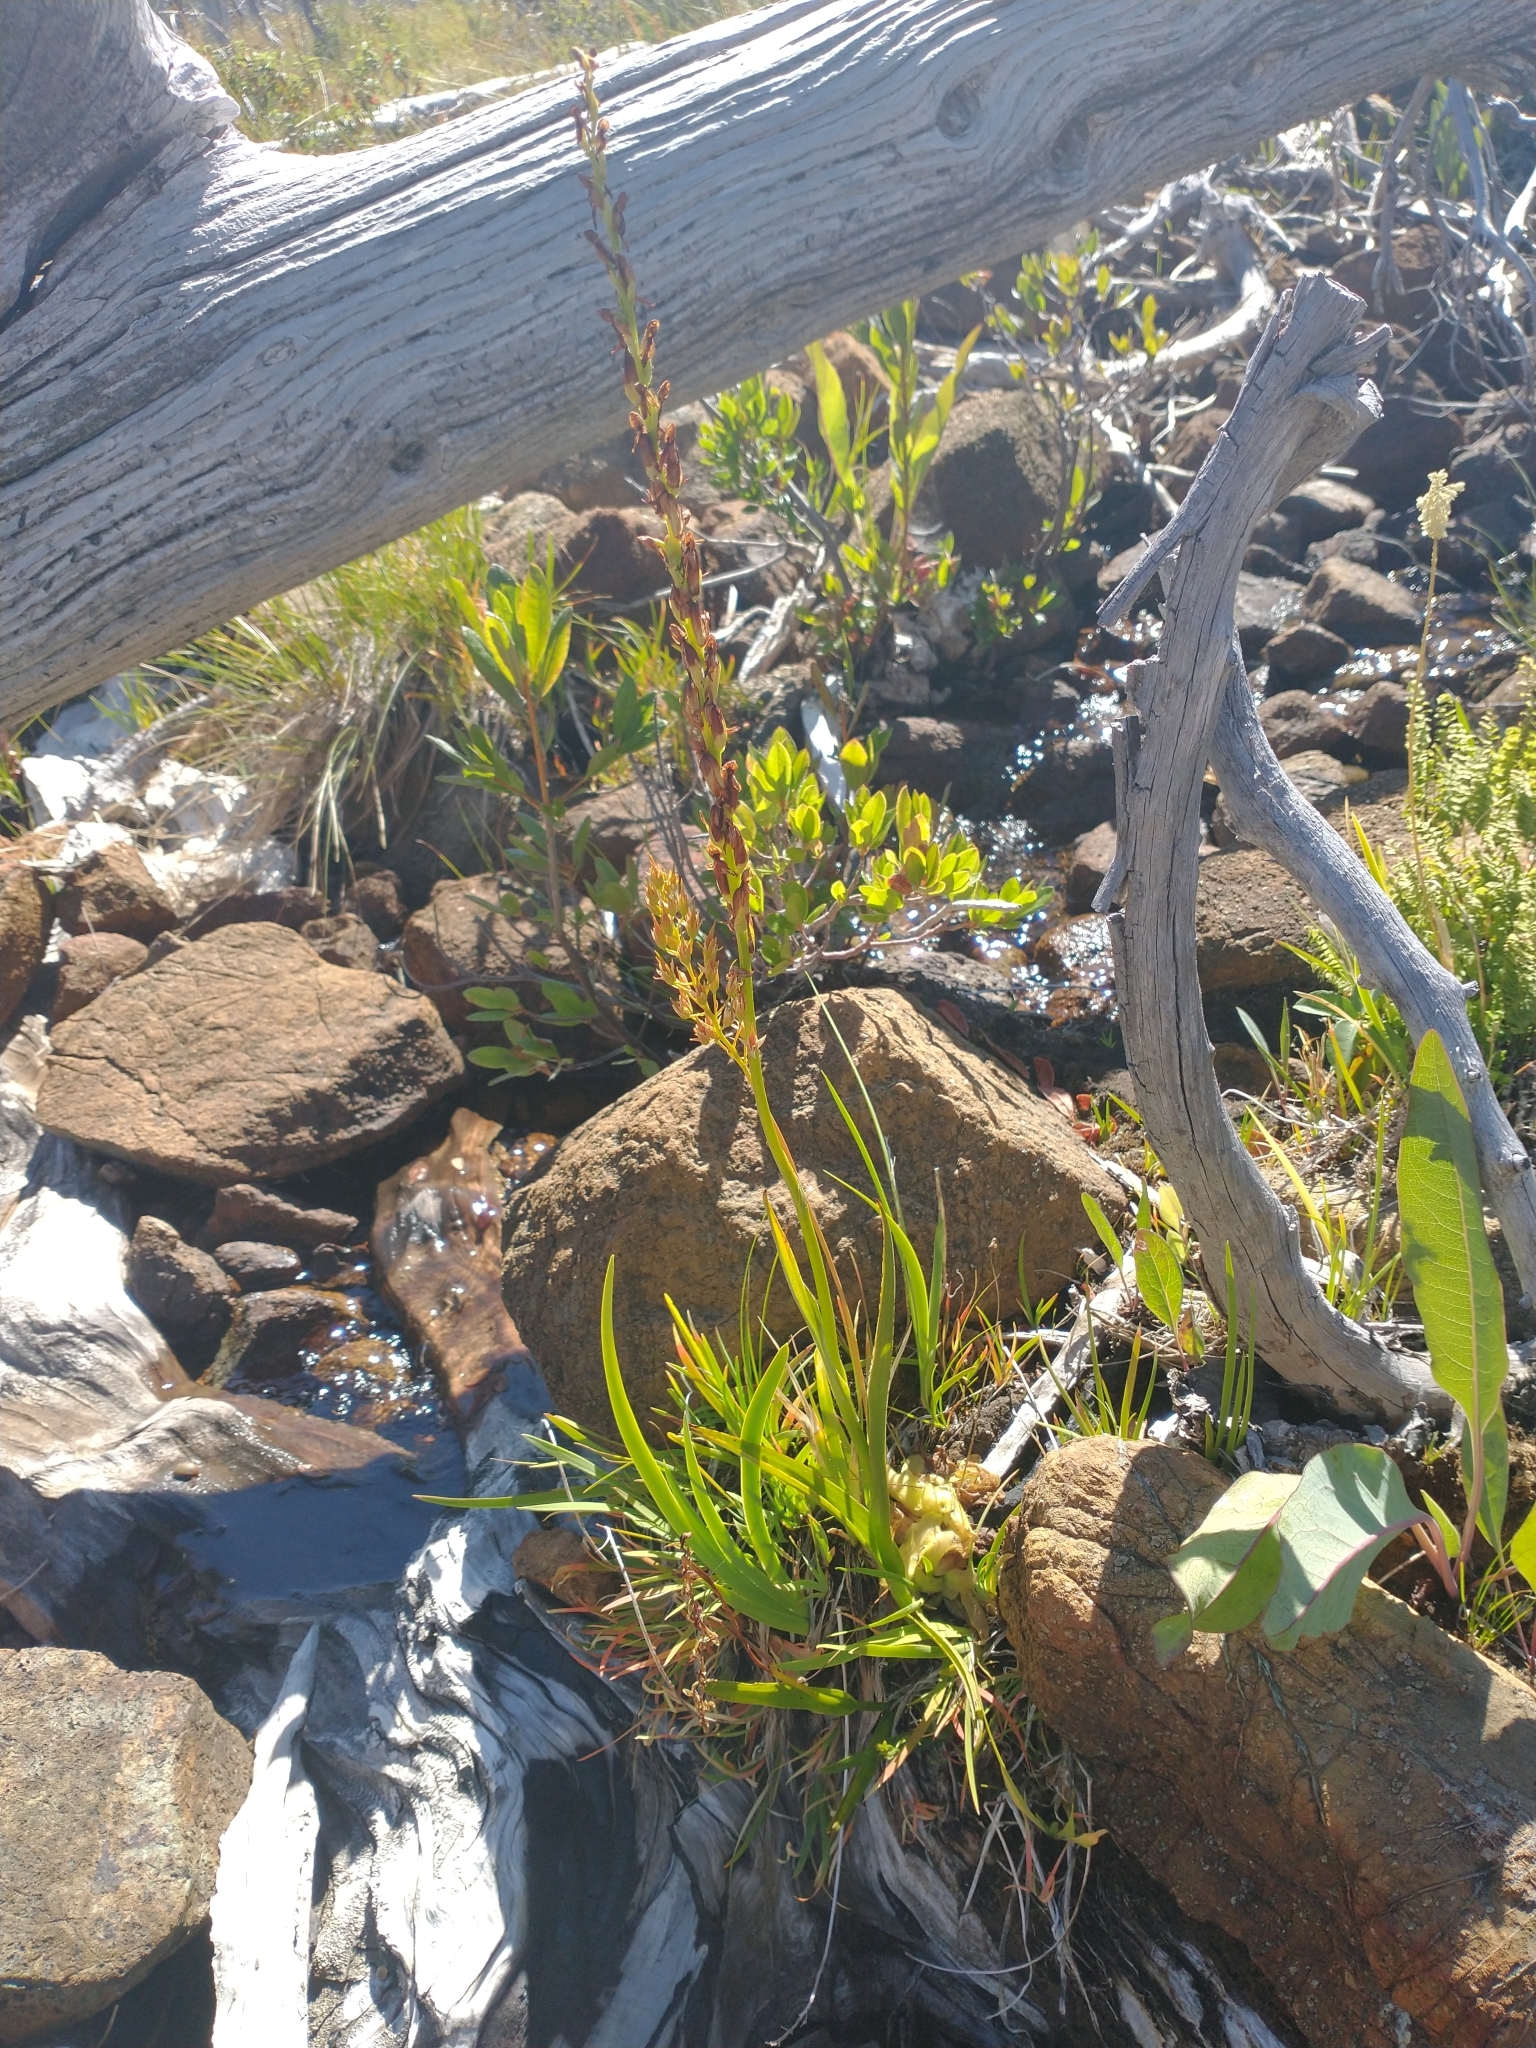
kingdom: Plantae
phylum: Tracheophyta
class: Liliopsida
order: Dioscoreales
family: Nartheciaceae
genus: Narthecium
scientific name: Narthecium californicum
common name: California bog-asphodel
